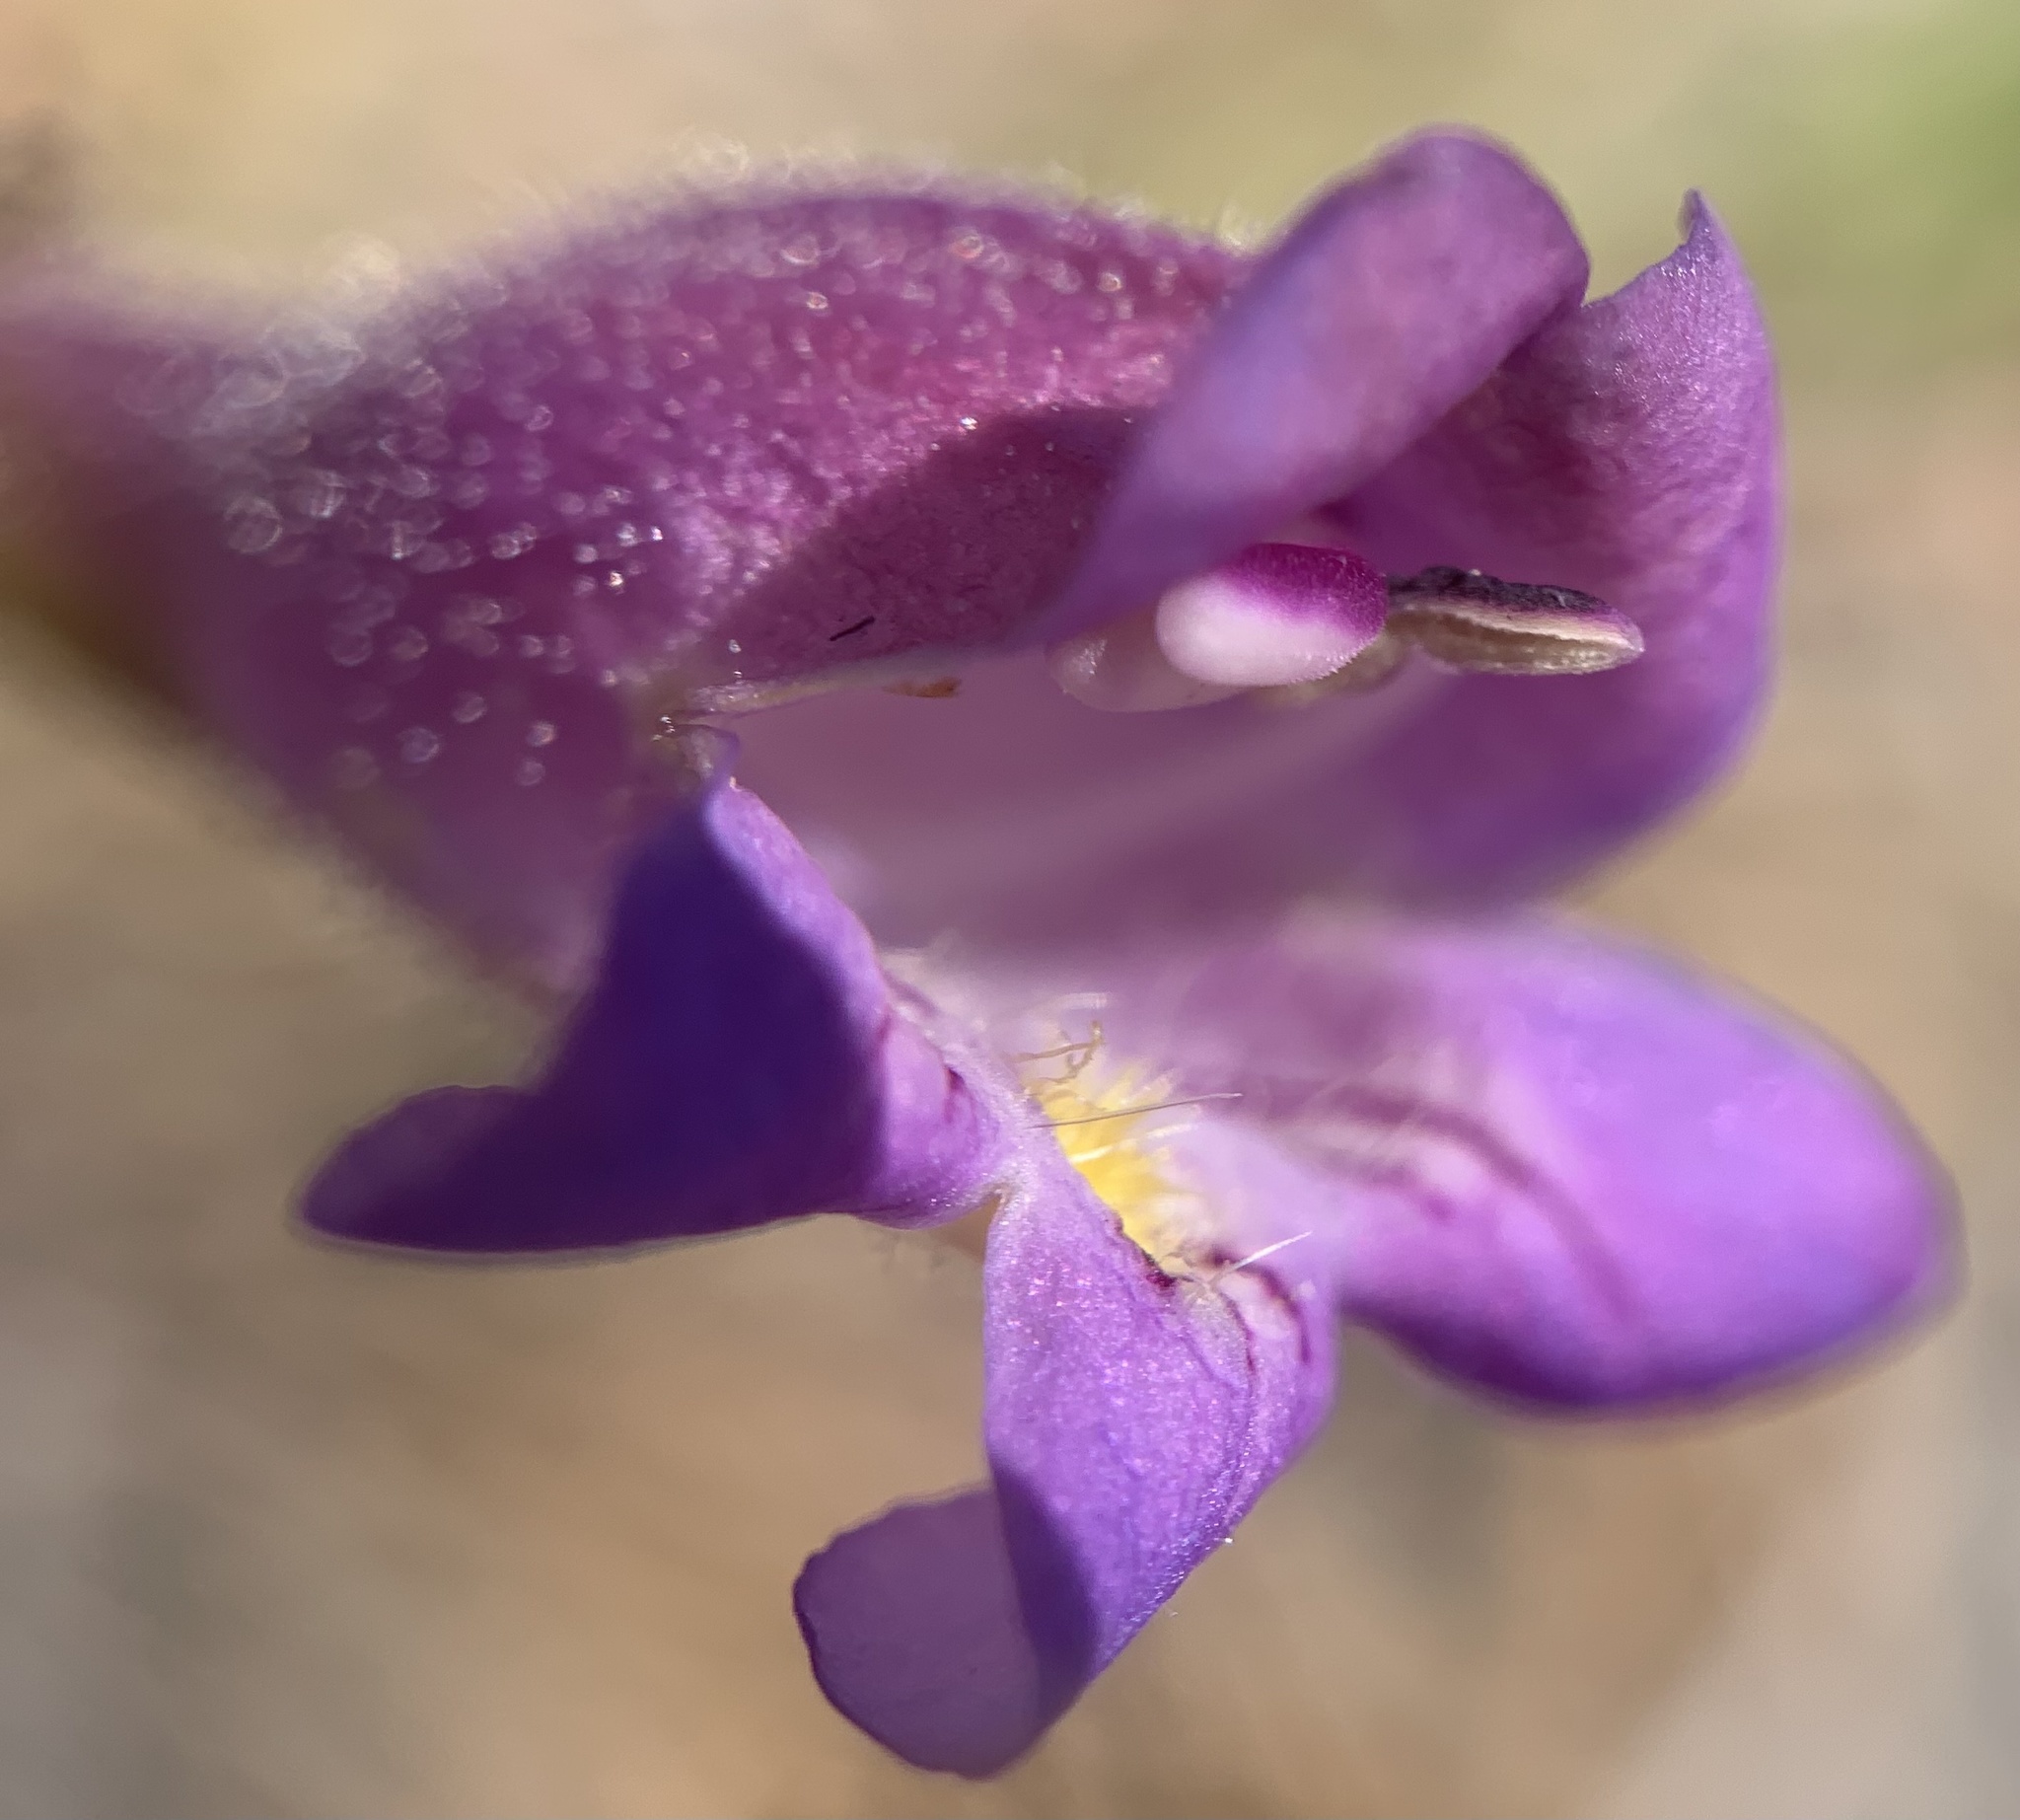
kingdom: Plantae
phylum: Tracheophyta
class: Magnoliopsida
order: Lamiales
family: Plantaginaceae
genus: Penstemon
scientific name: Penstemon linarioides
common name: Siler's penstemon
